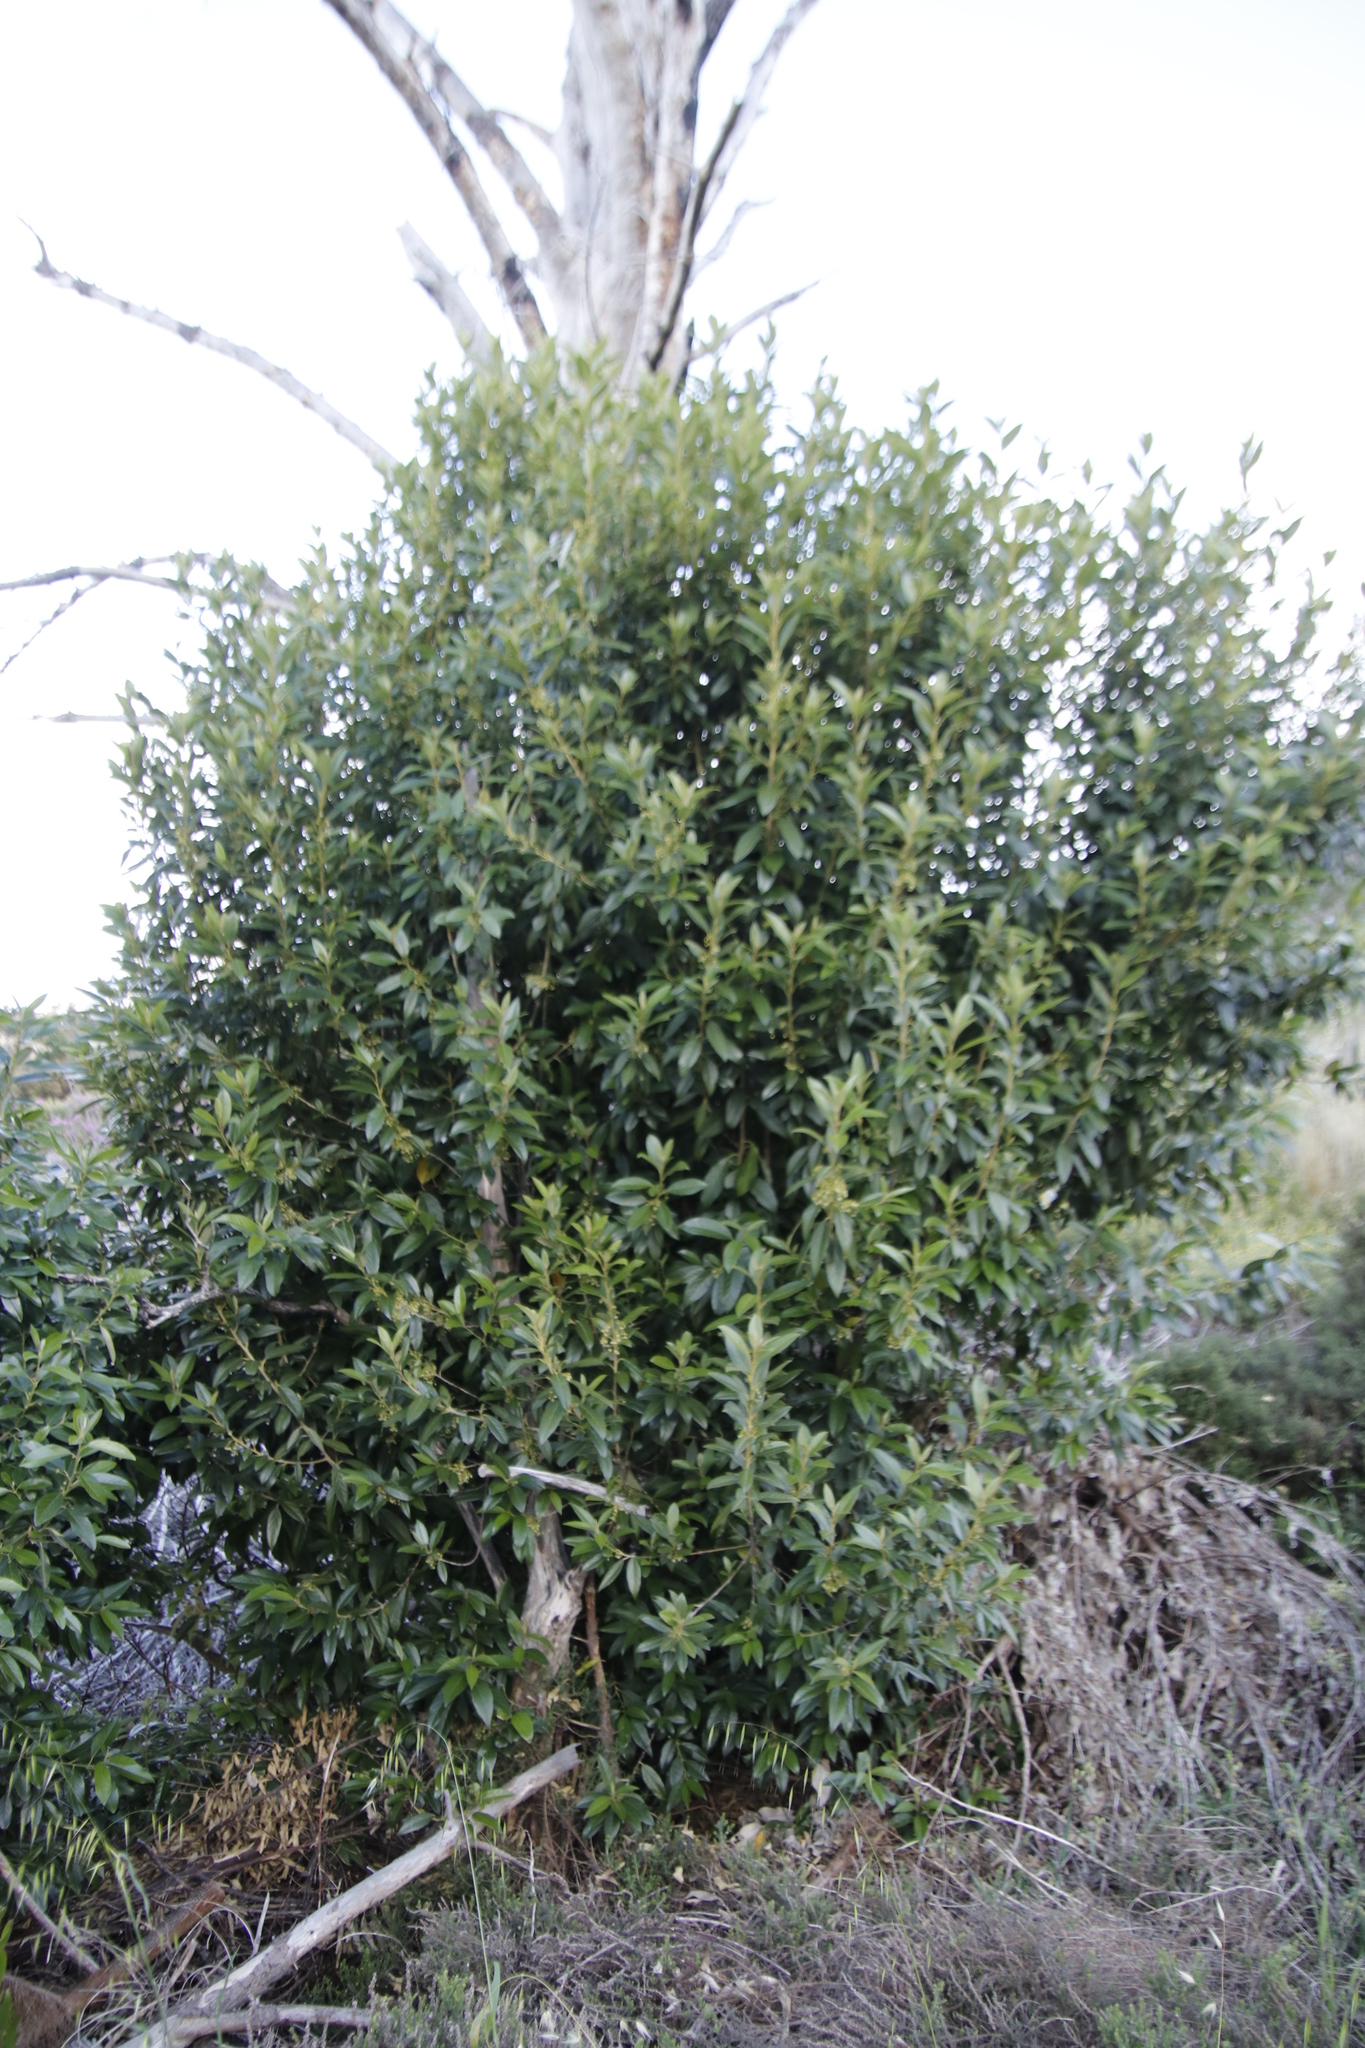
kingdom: Plantae
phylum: Tracheophyta
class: Magnoliopsida
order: Malpighiales
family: Achariaceae
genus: Kiggelaria
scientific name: Kiggelaria africana
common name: Wild peach
